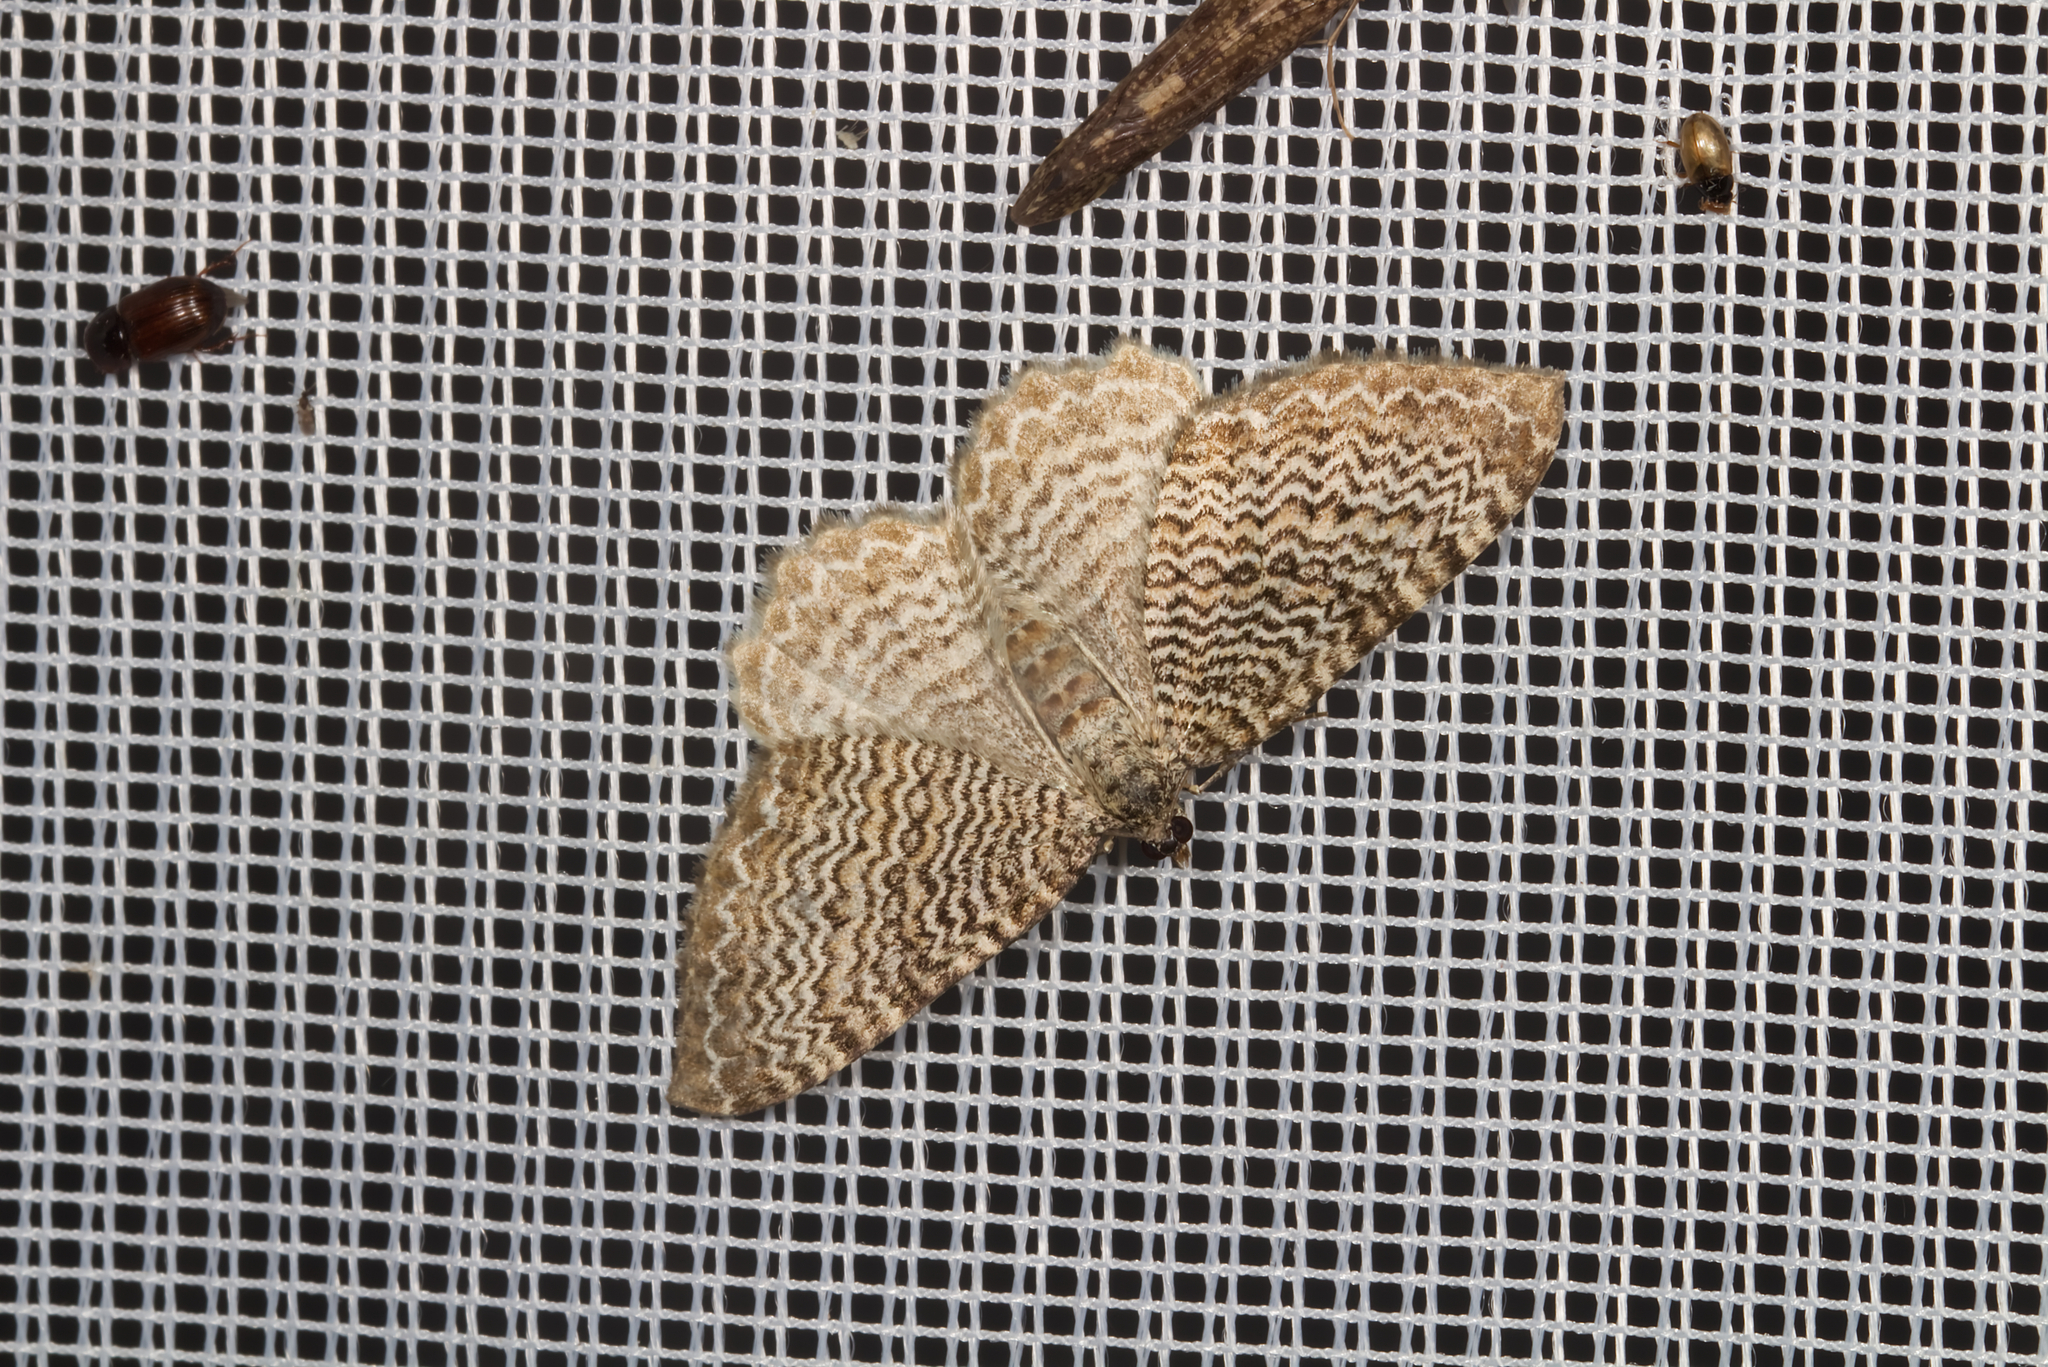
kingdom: Animalia
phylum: Arthropoda
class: Insecta
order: Lepidoptera
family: Geometridae
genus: Rheumaptera
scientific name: Rheumaptera undulata
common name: Scallop shell
